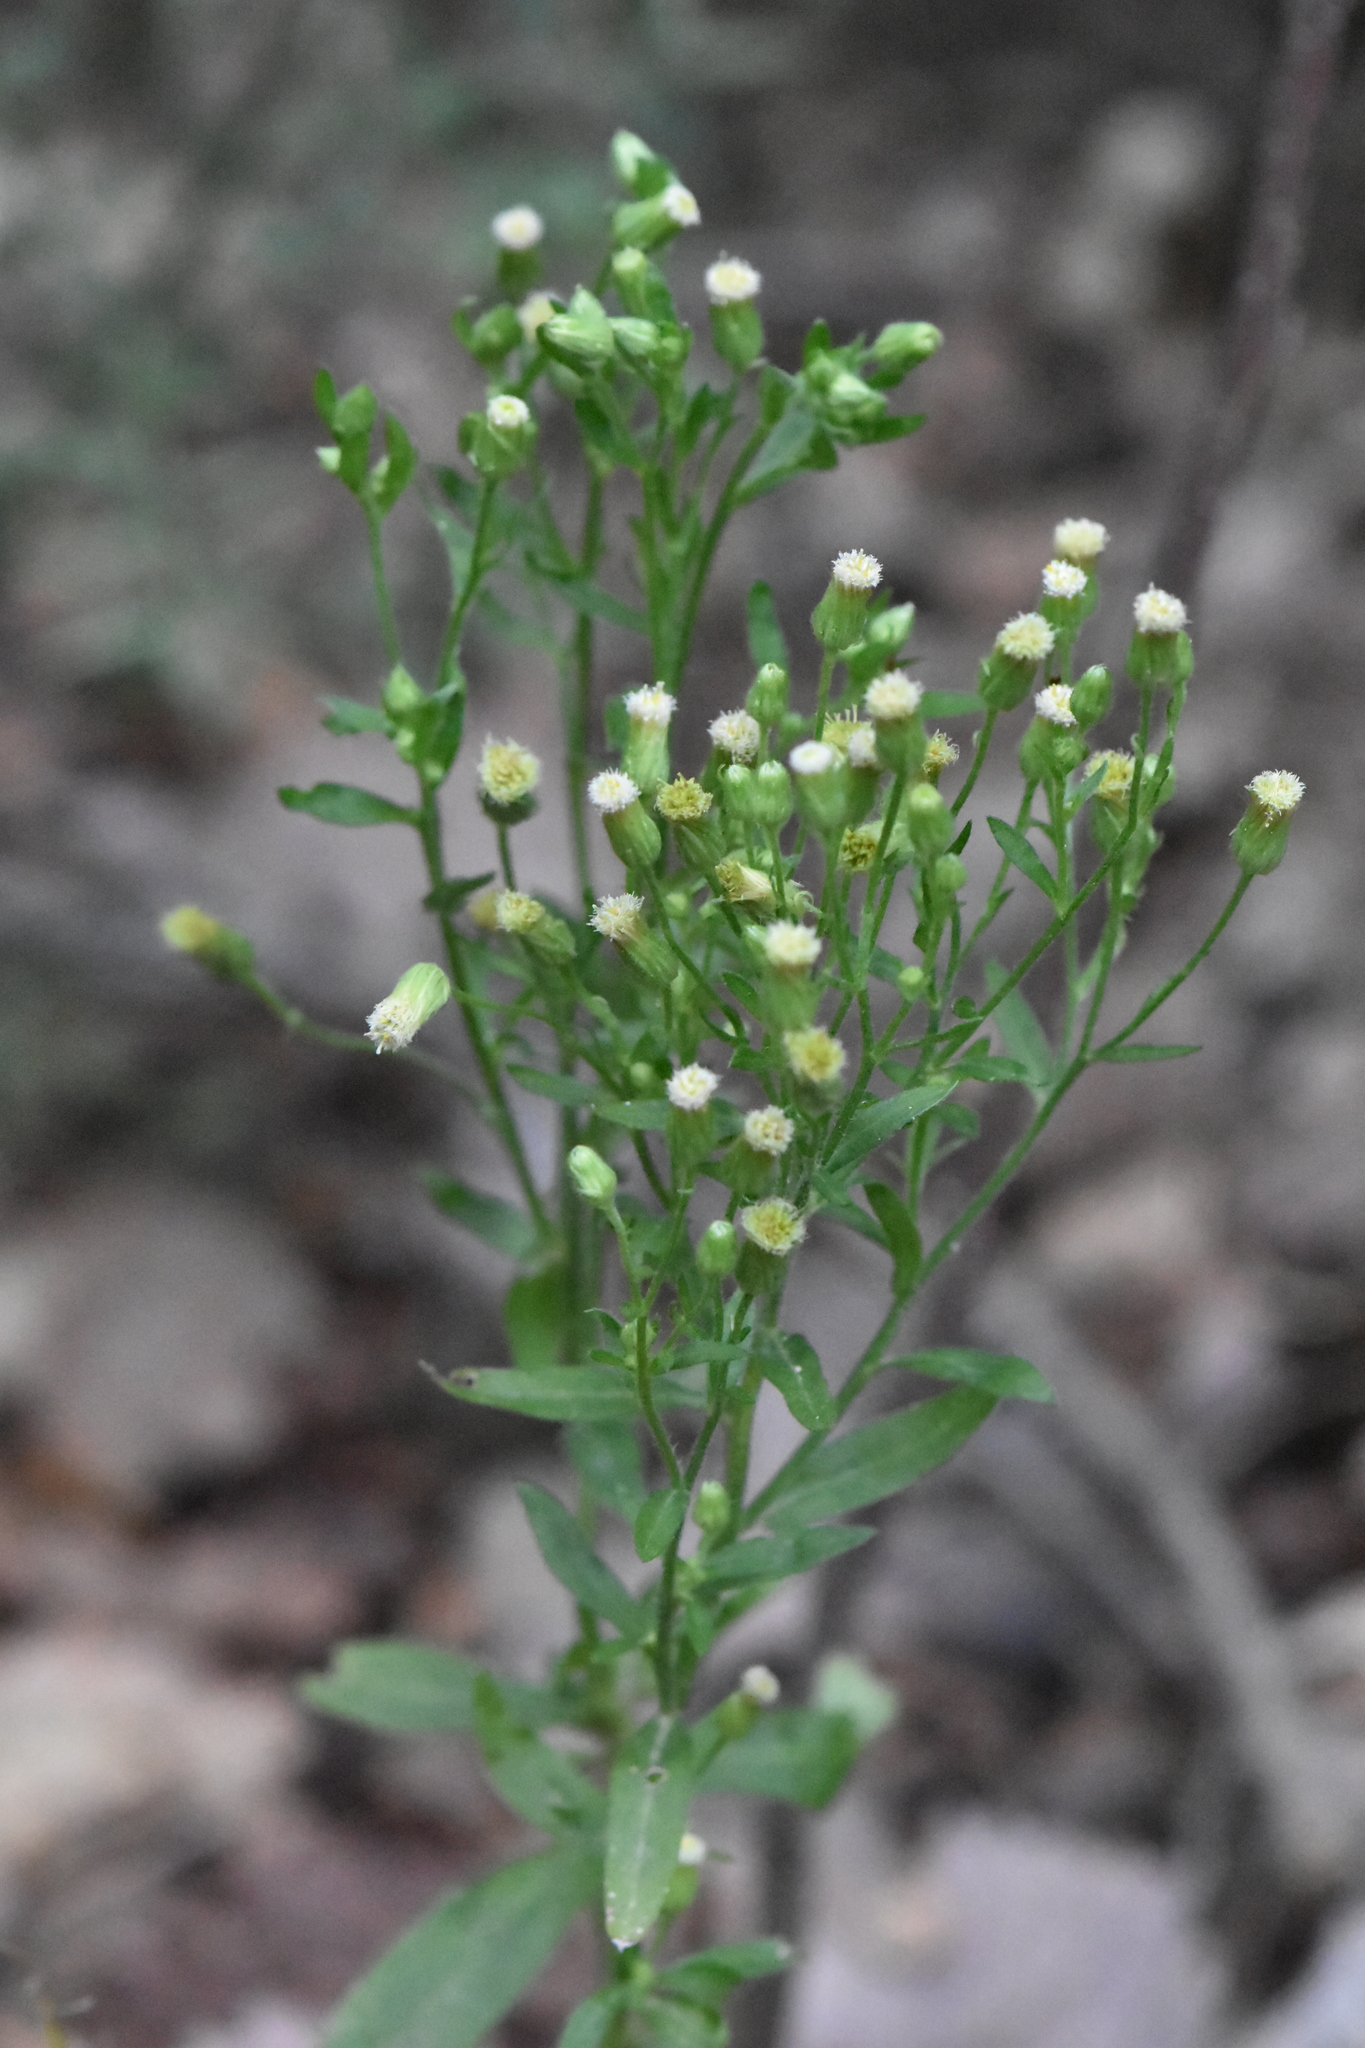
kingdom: Plantae
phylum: Tracheophyta
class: Magnoliopsida
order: Asterales
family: Asteraceae
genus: Erigeron
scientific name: Erigeron canadensis
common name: Canadian fleabane
